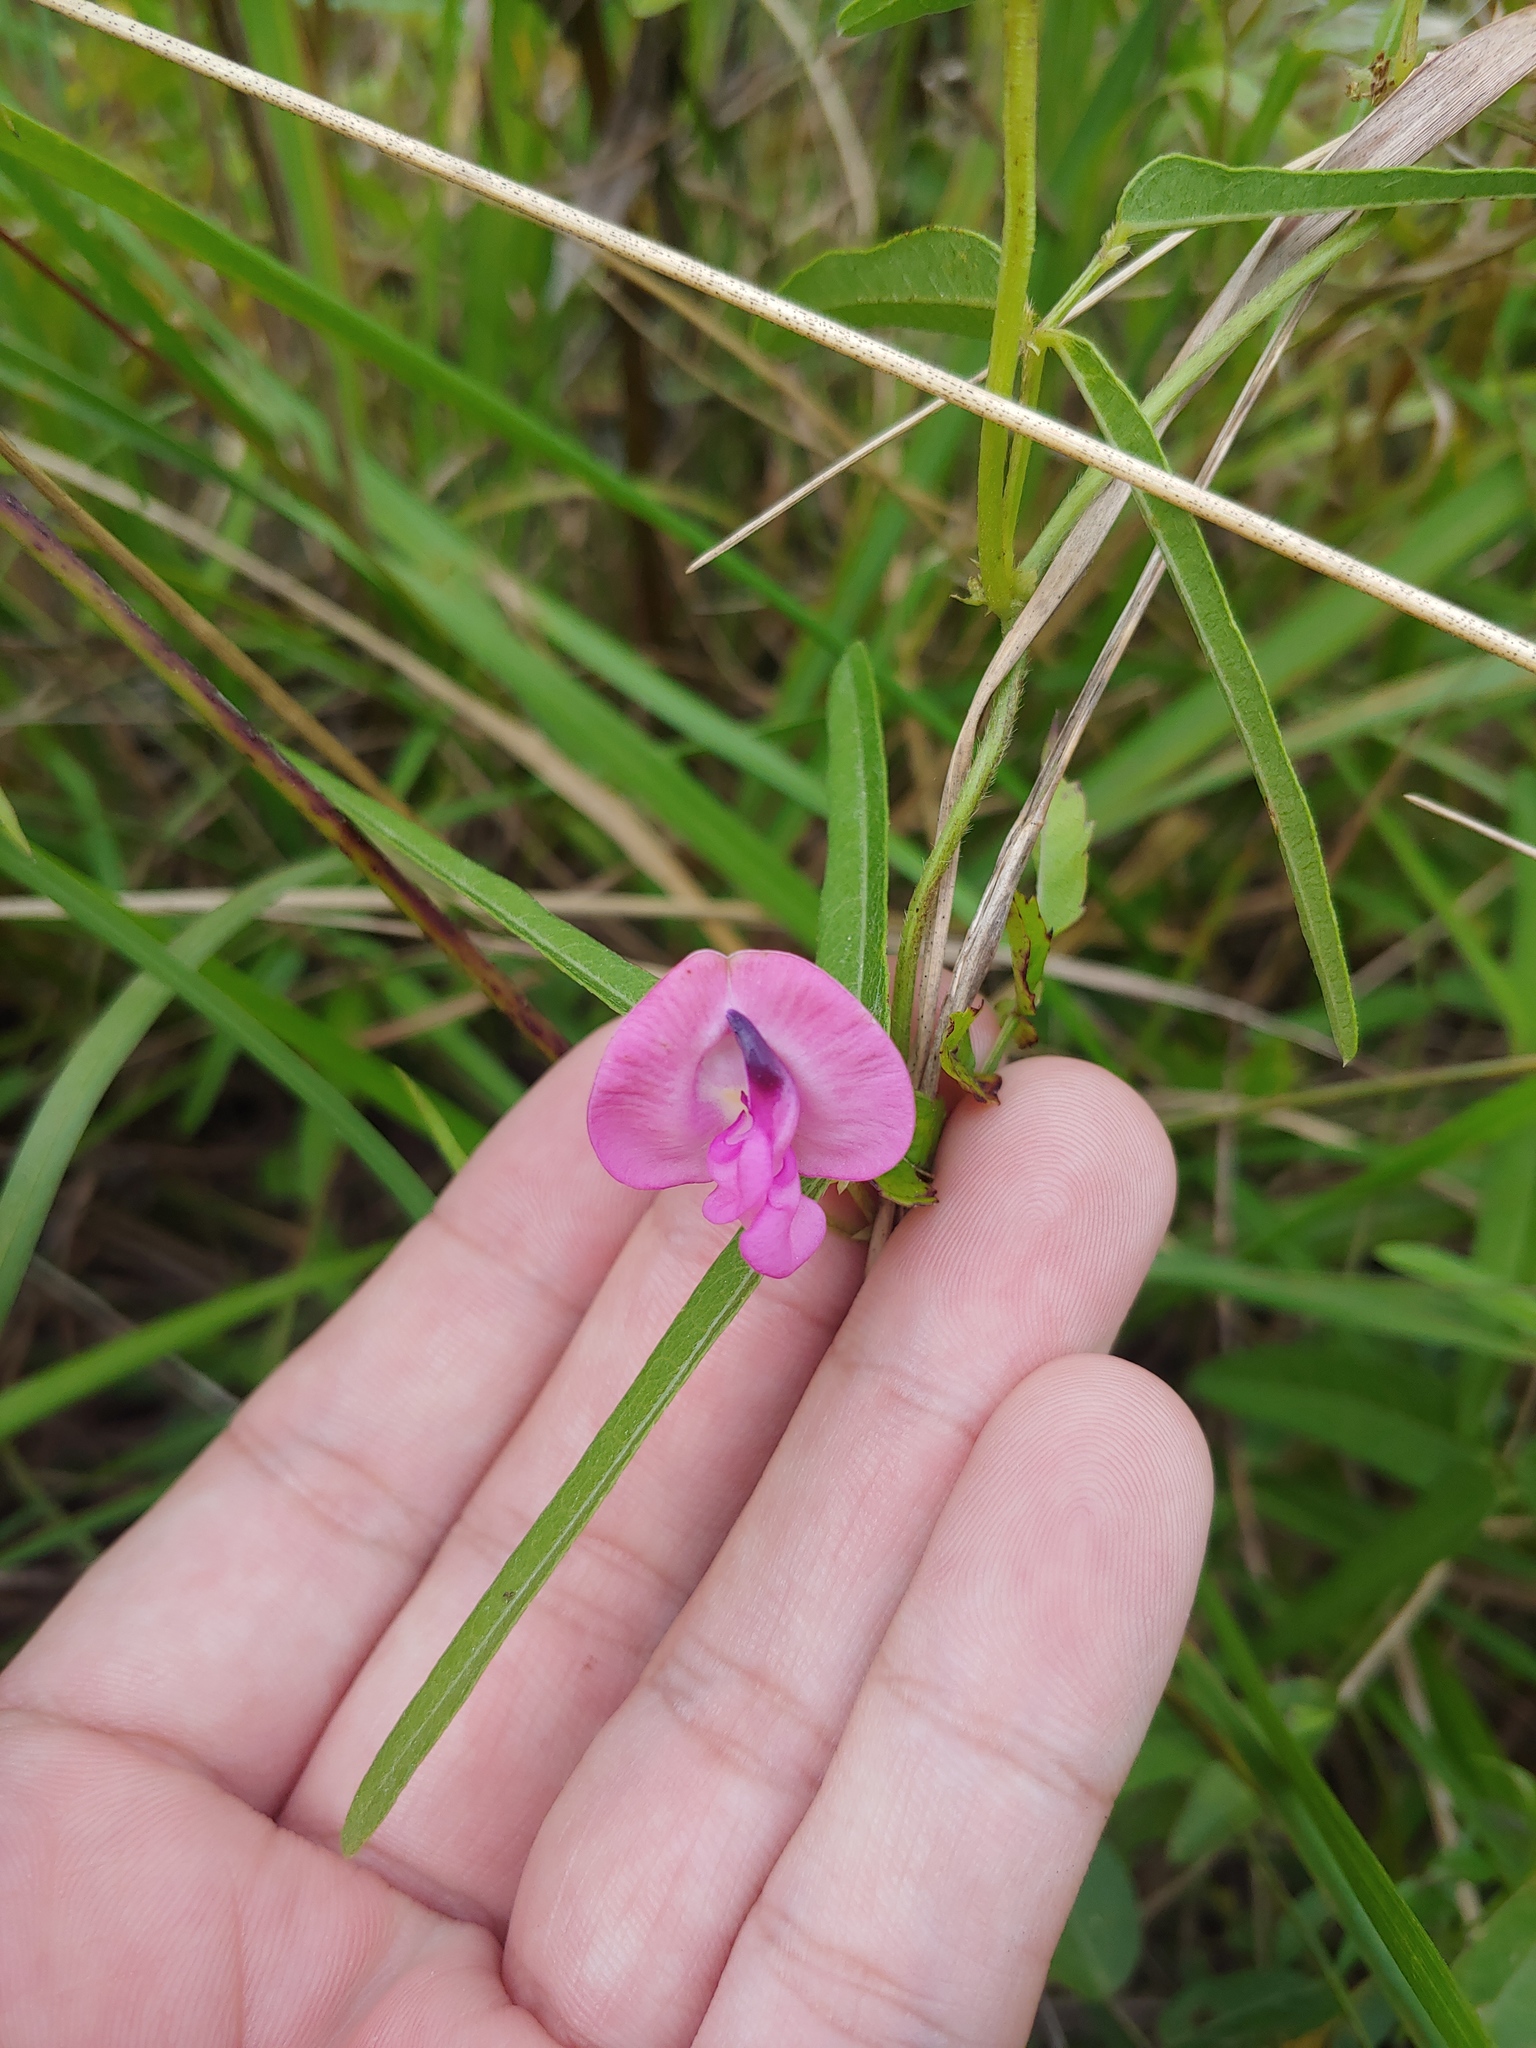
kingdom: Plantae
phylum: Tracheophyta
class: Magnoliopsida
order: Fabales
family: Fabaceae
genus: Strophostyles
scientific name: Strophostyles umbellata
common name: Perennial wild bean
